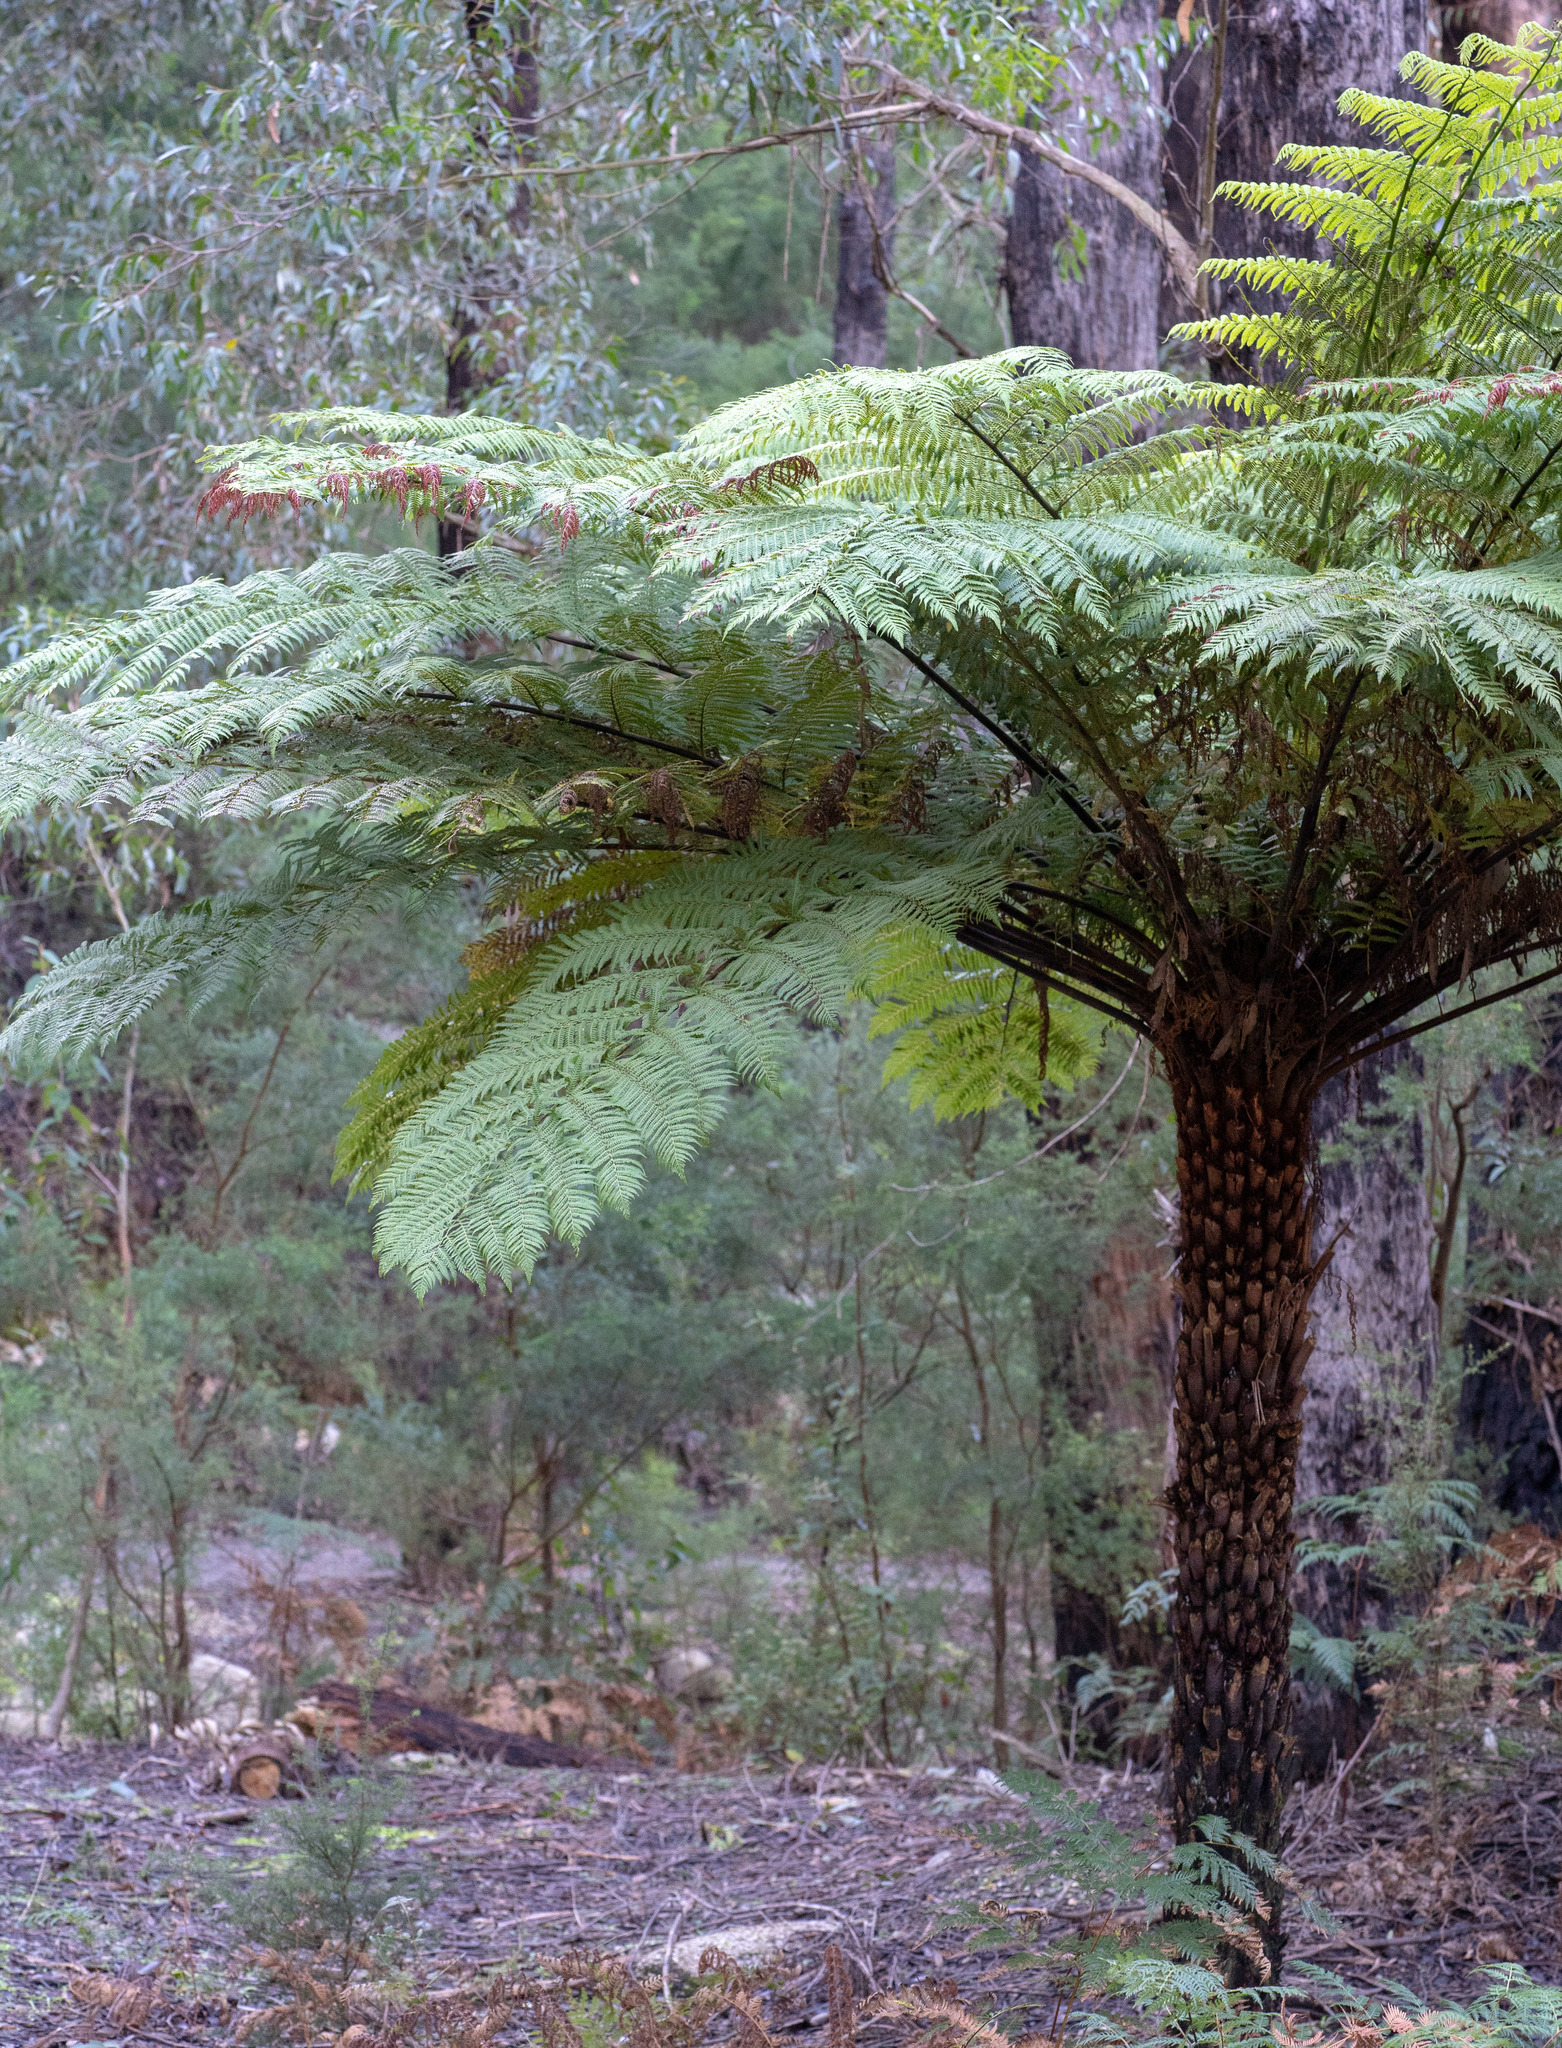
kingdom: Plantae
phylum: Tracheophyta
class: Polypodiopsida
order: Cyatheales
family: Cyatheaceae
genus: Alsophila
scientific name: Alsophila australis
